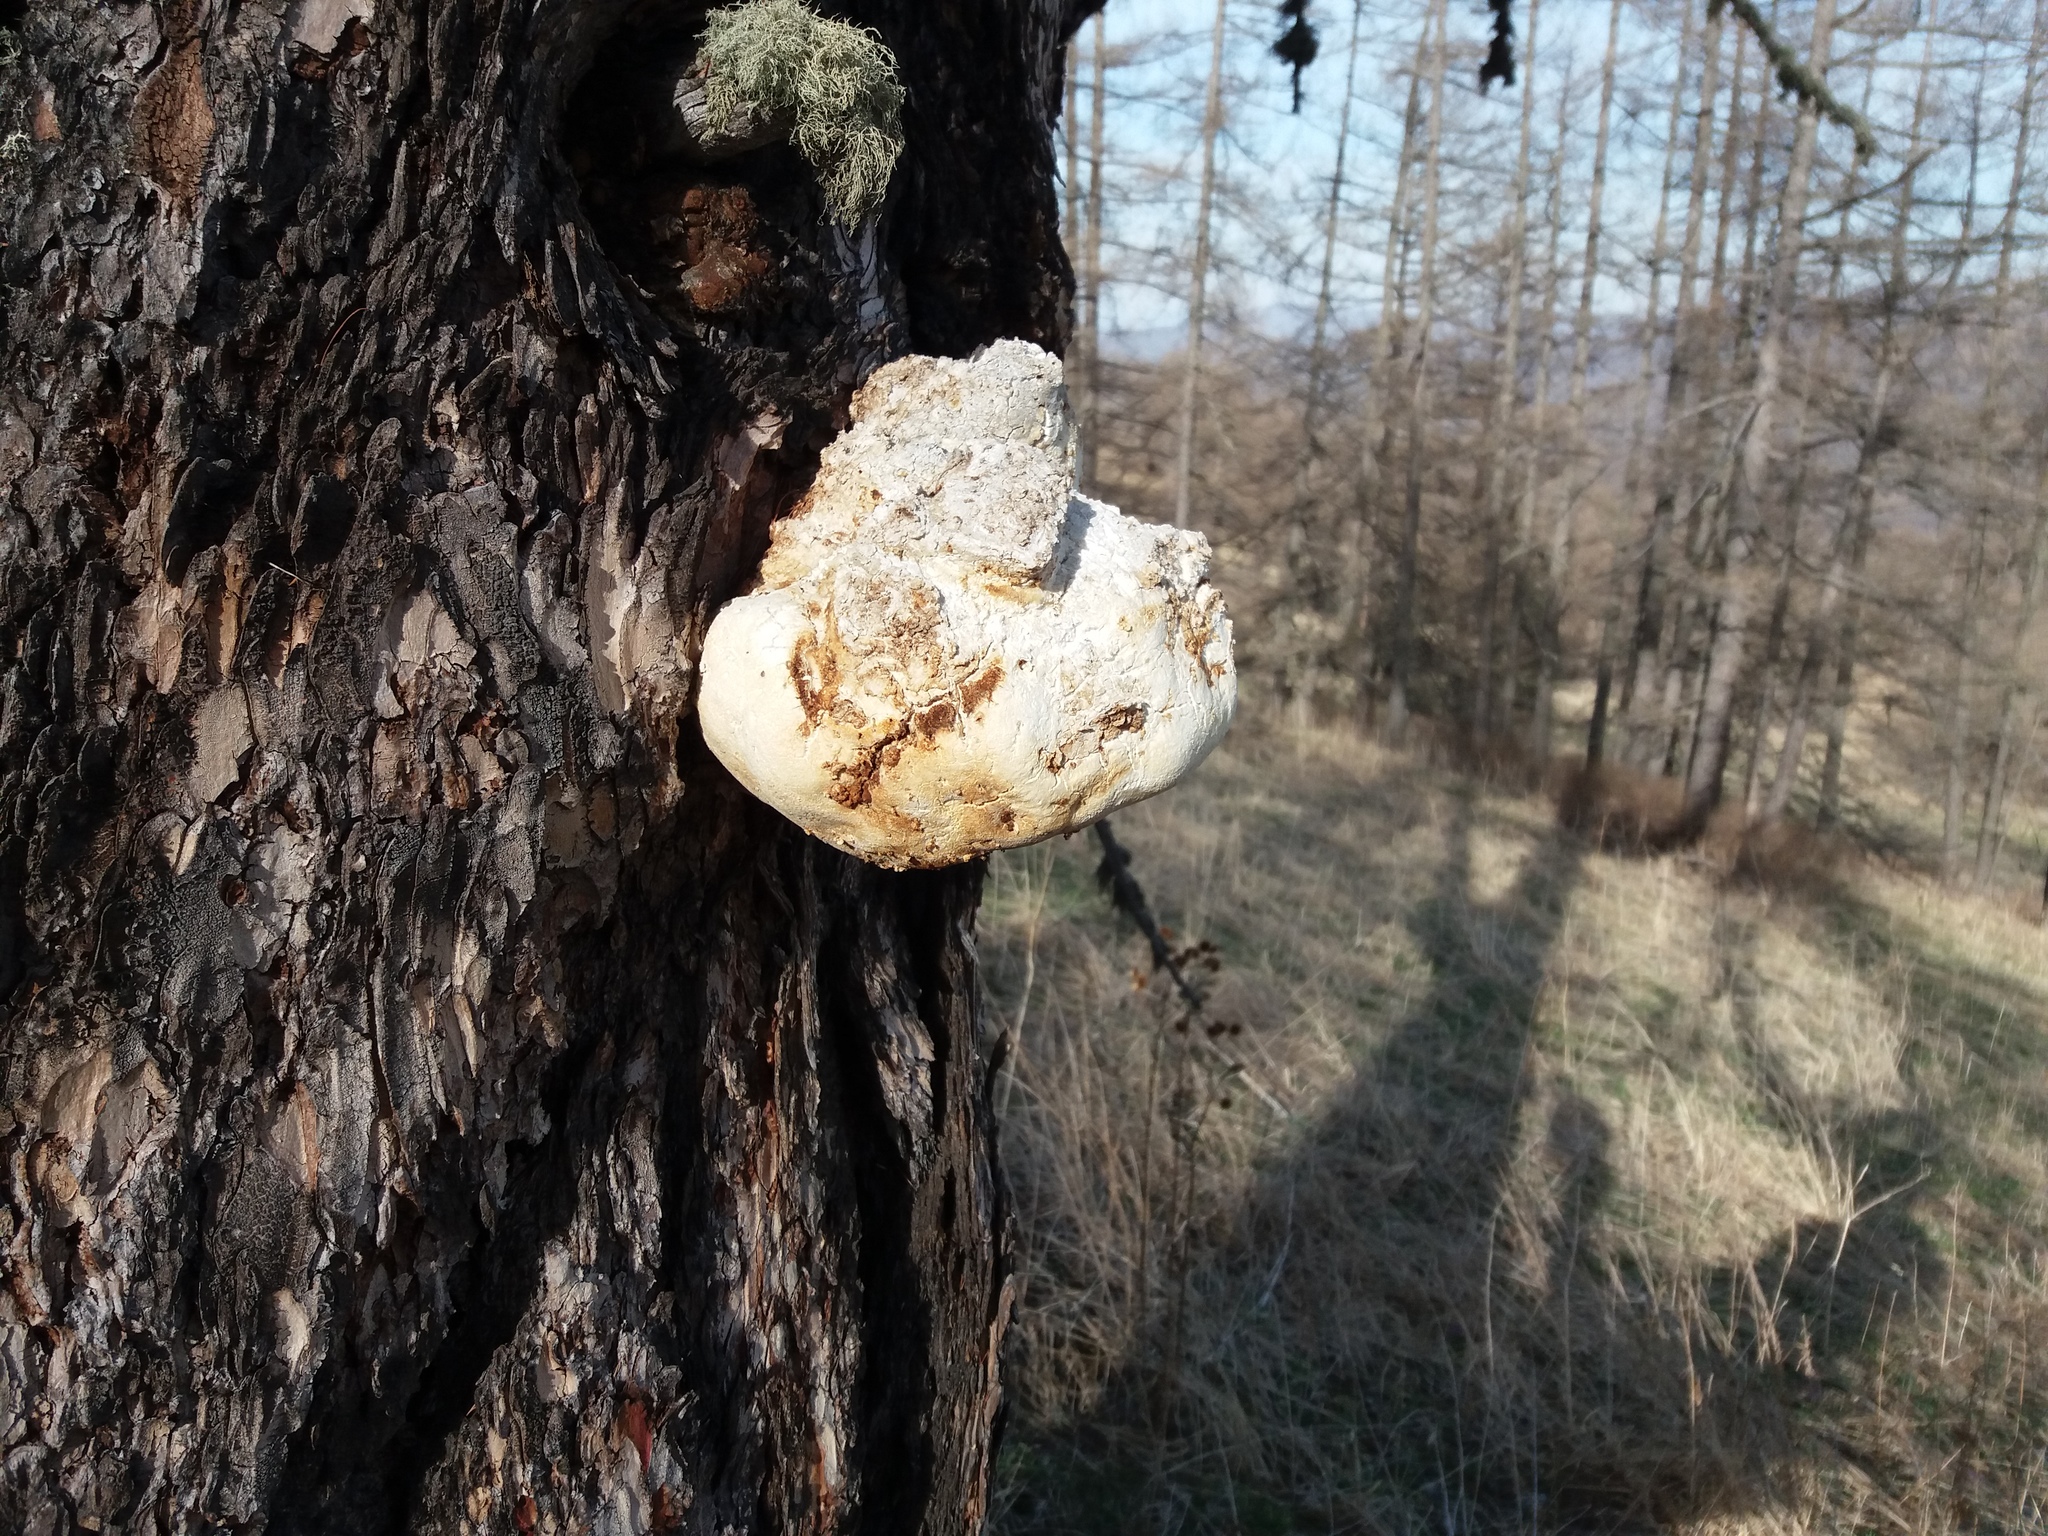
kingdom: Fungi
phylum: Basidiomycota
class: Agaricomycetes
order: Polyporales
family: Fomitopsidaceae
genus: Fomitopsis
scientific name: Fomitopsis officinalis
